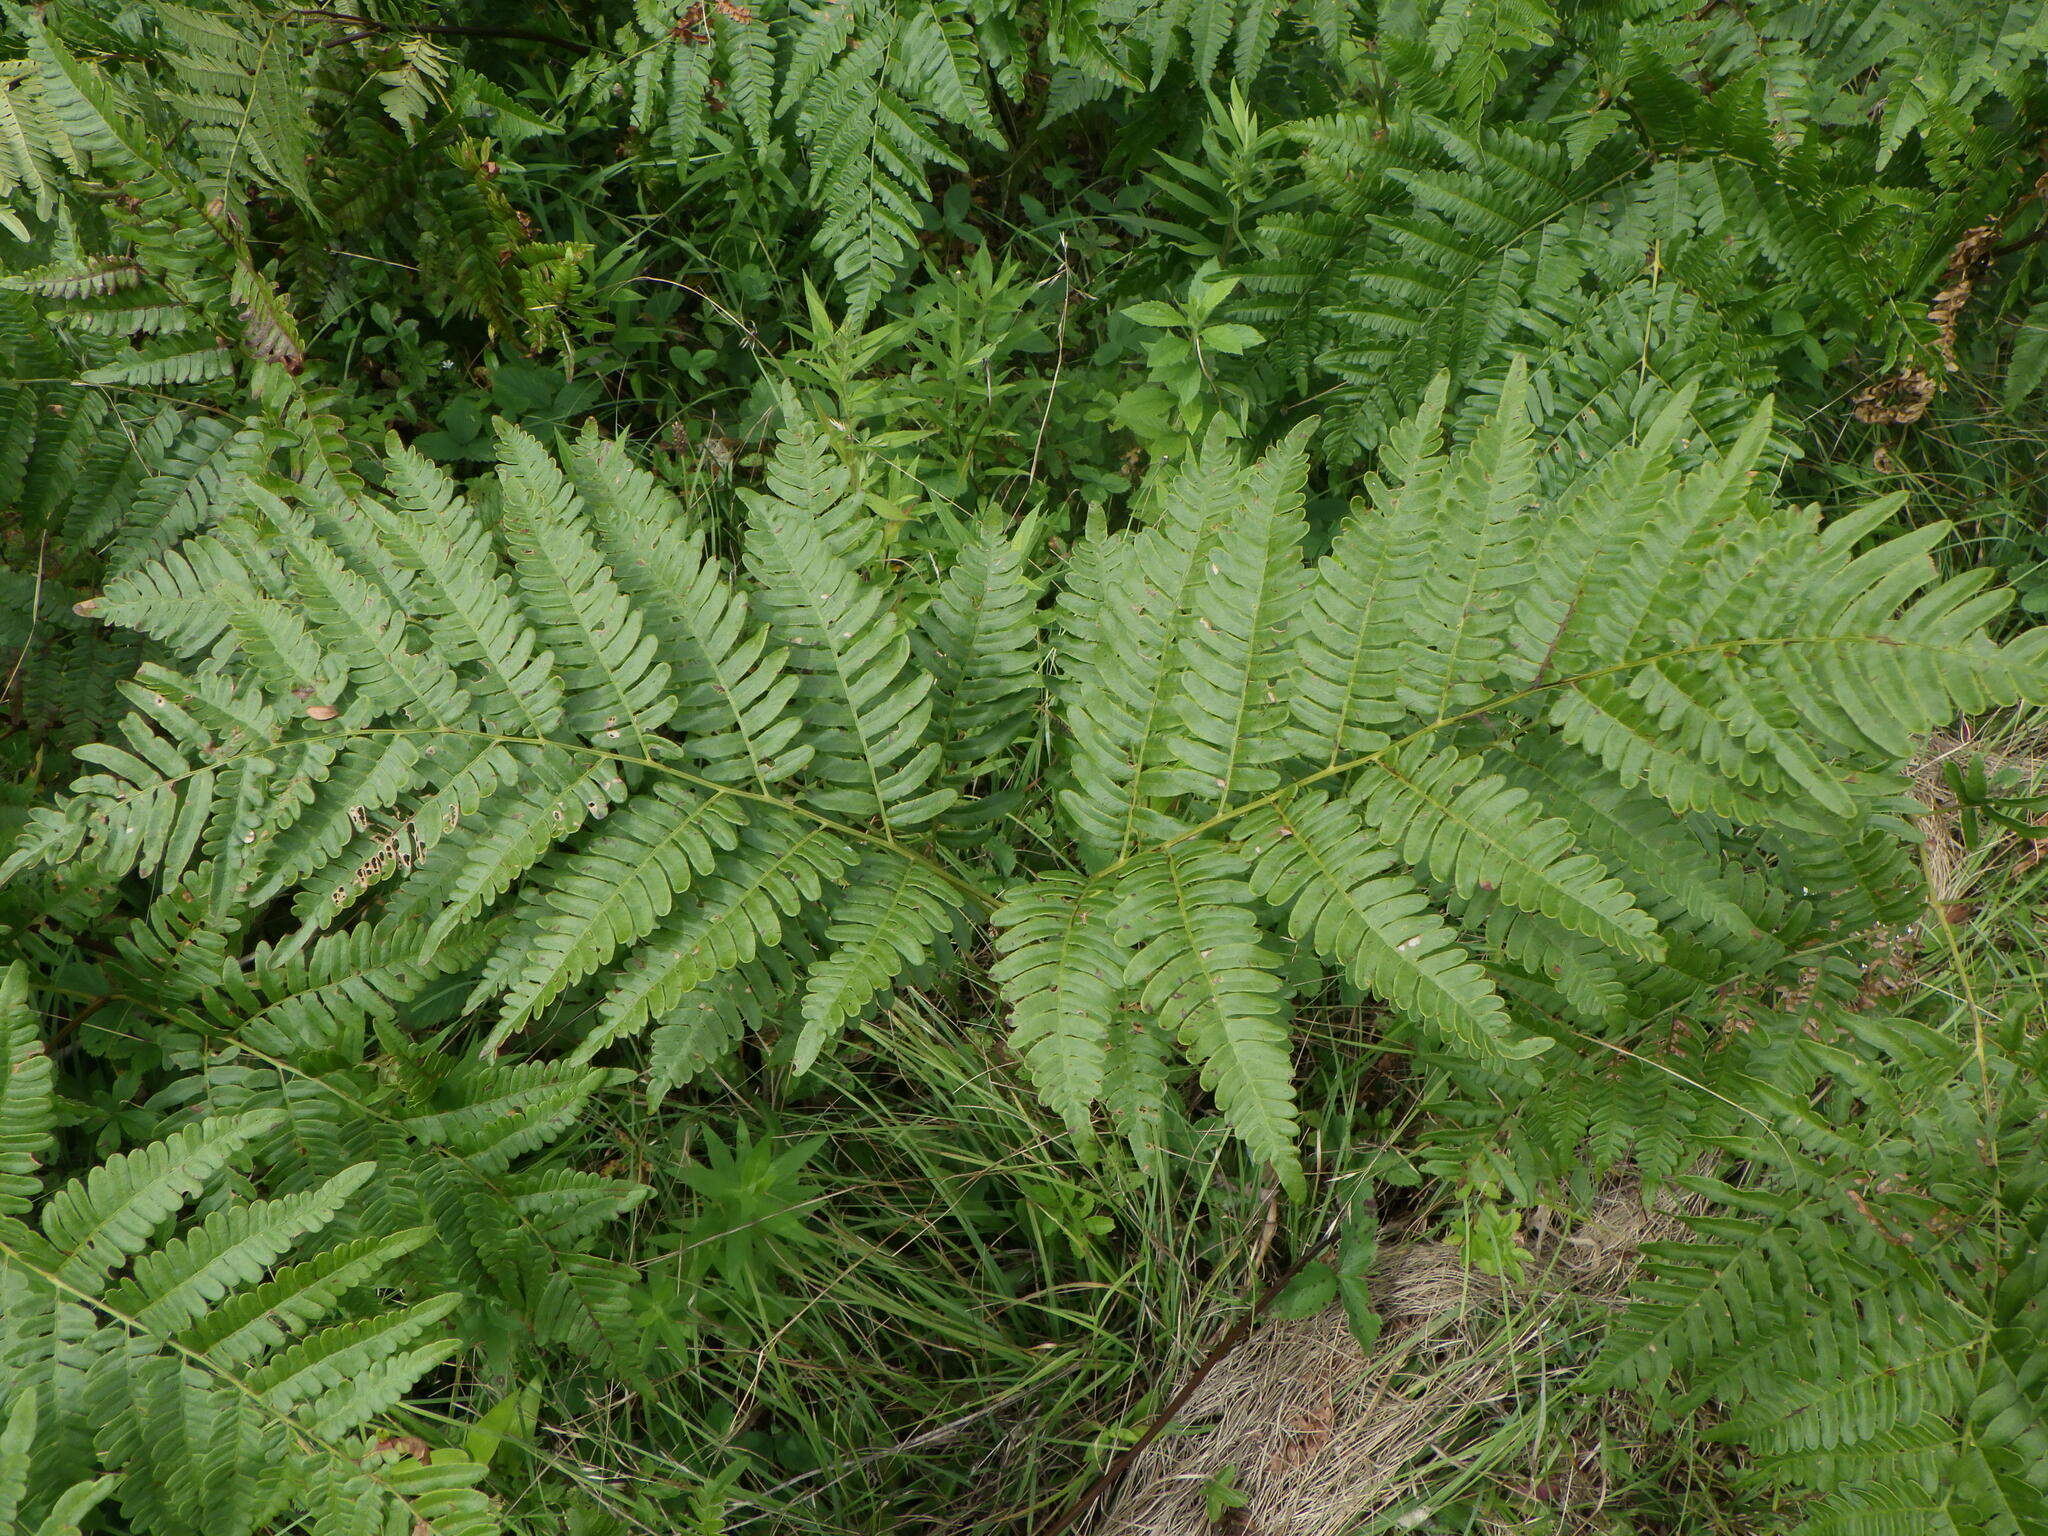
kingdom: Plantae
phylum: Tracheophyta
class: Polypodiopsida
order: Polypodiales
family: Dennstaedtiaceae
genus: Pteridium
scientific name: Pteridium aquilinum
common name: Bracken
